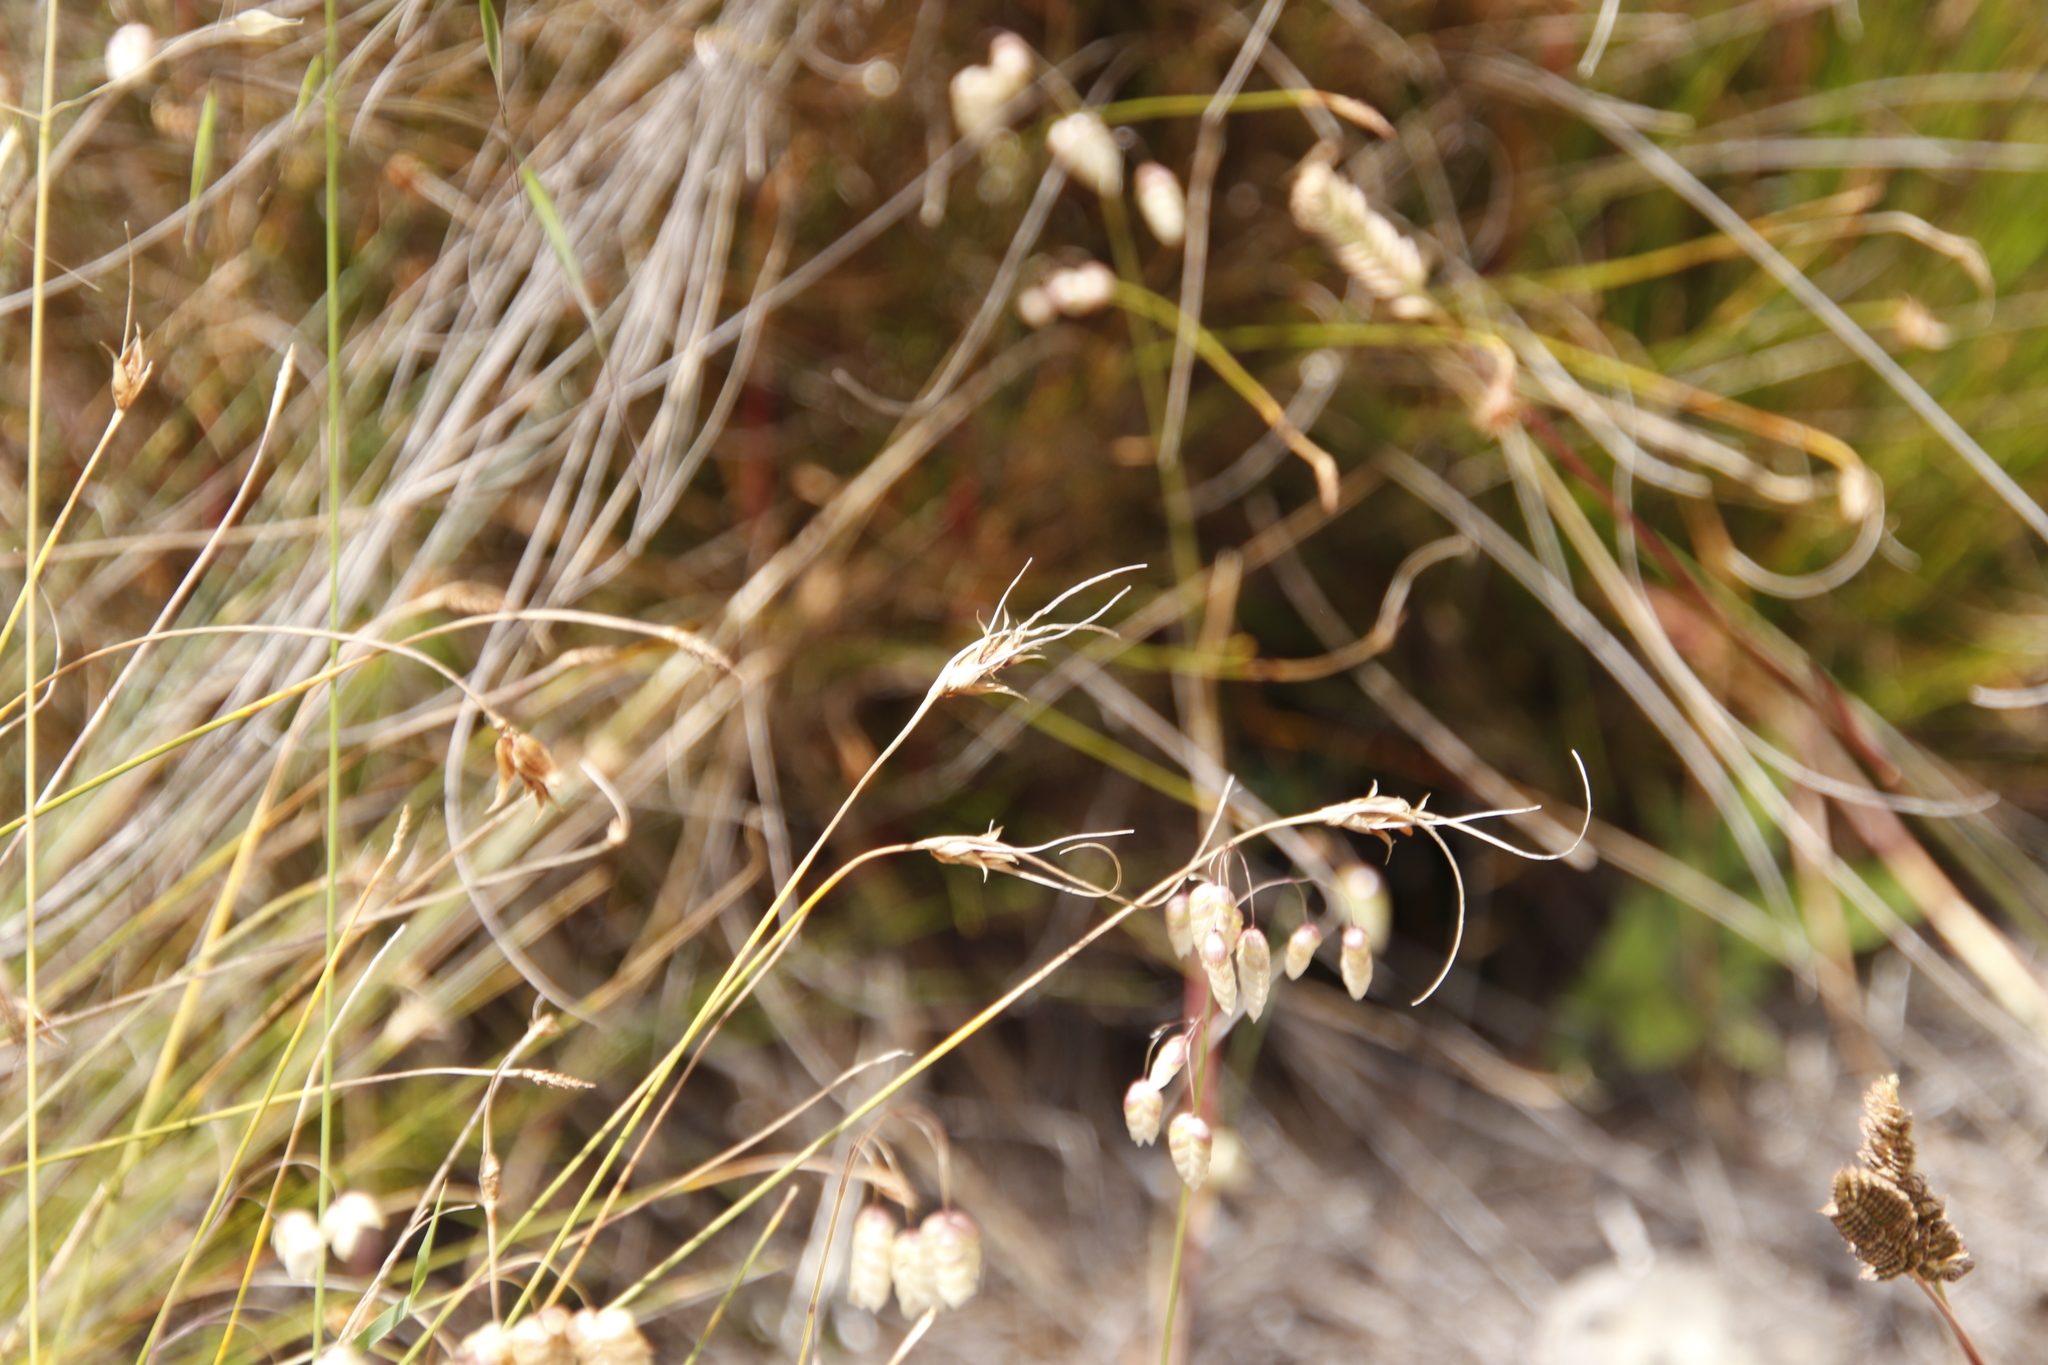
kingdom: Plantae
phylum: Tracheophyta
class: Liliopsida
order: Poales
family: Cyperaceae
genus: Ficinia
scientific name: Ficinia nigrescens
